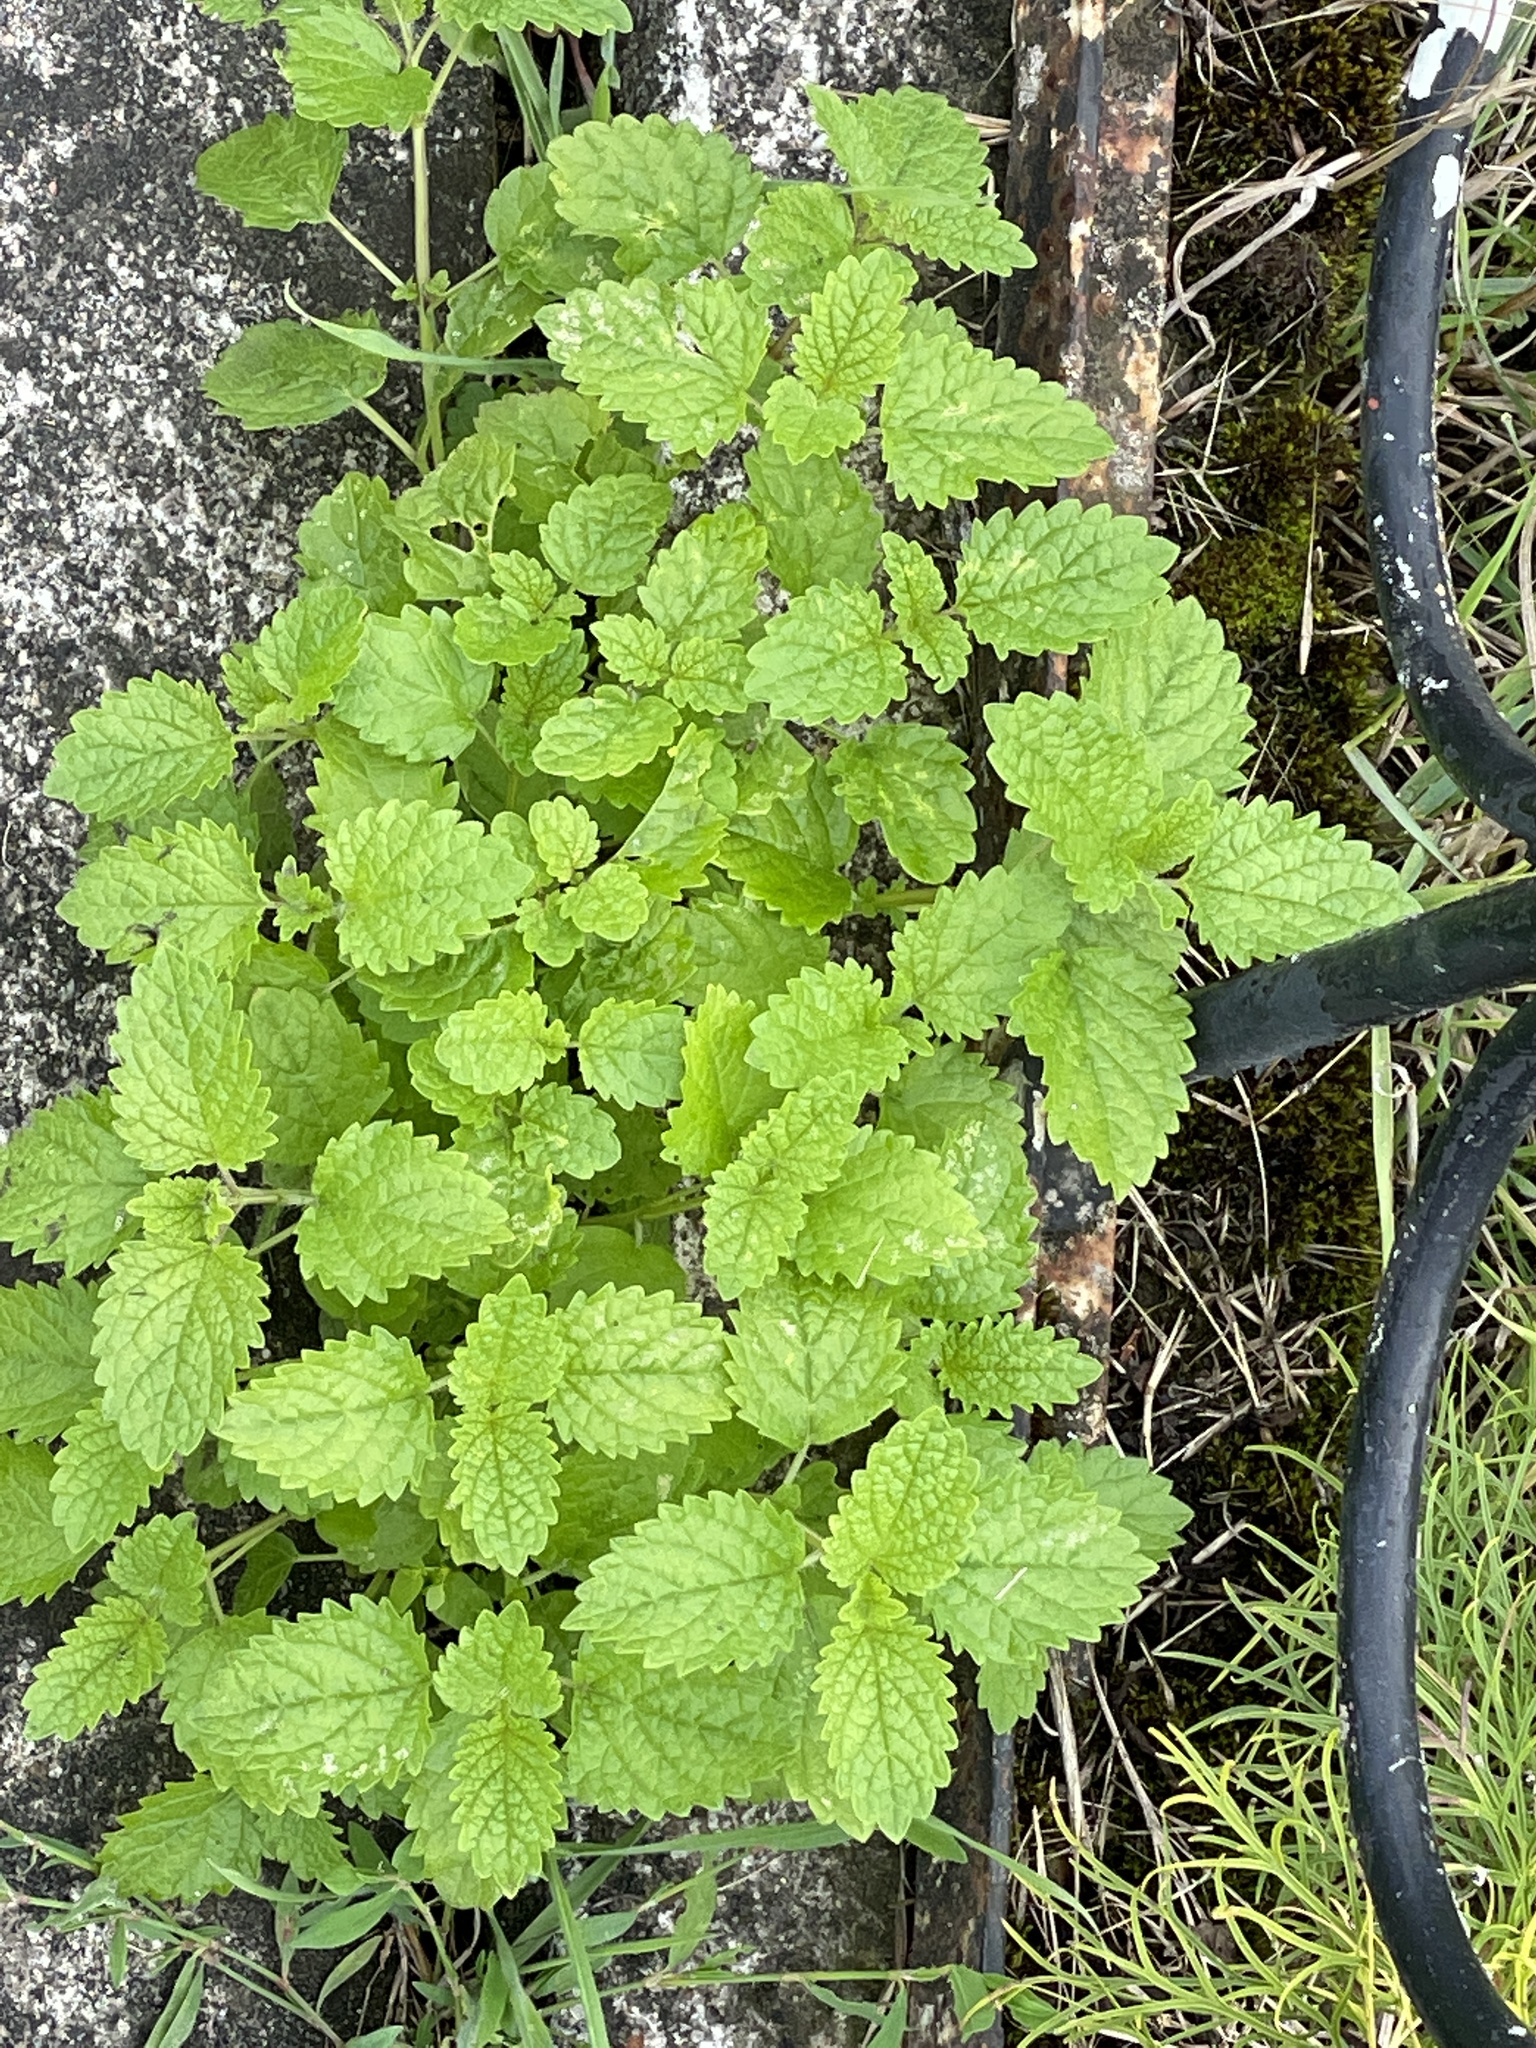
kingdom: Plantae
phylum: Tracheophyta
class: Magnoliopsida
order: Lamiales
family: Lamiaceae
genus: Melissa
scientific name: Melissa officinalis
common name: Balm
